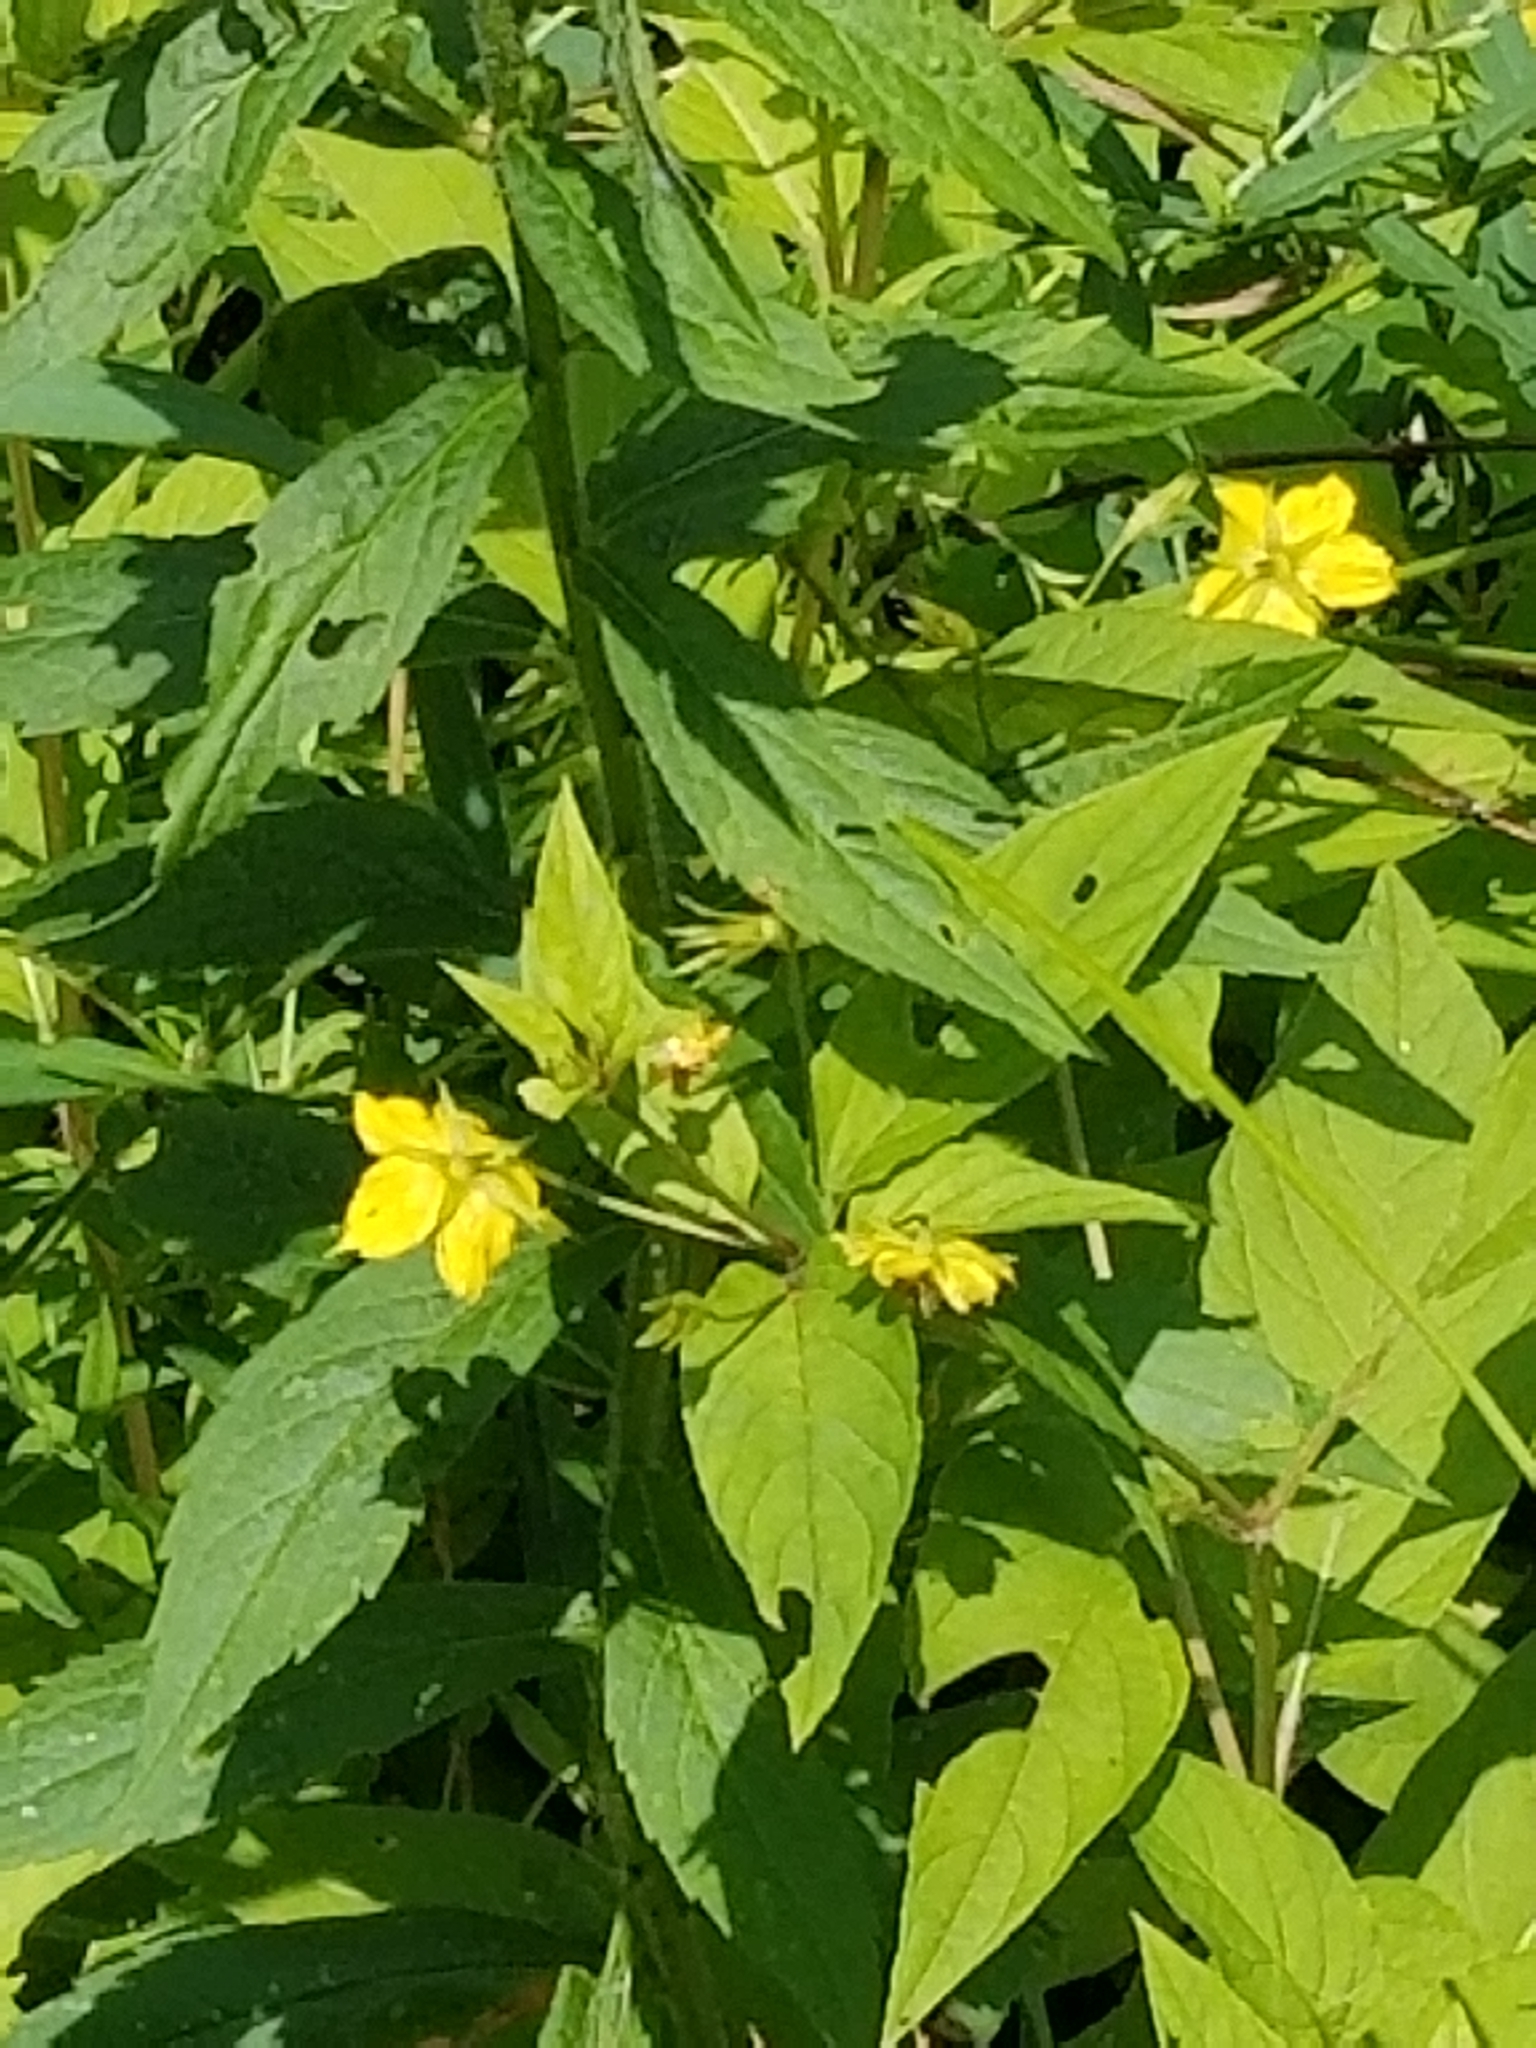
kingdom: Plantae
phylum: Tracheophyta
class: Magnoliopsida
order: Ericales
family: Primulaceae
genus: Lysimachia
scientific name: Lysimachia quadrifolia
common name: Whorled loosestrife
